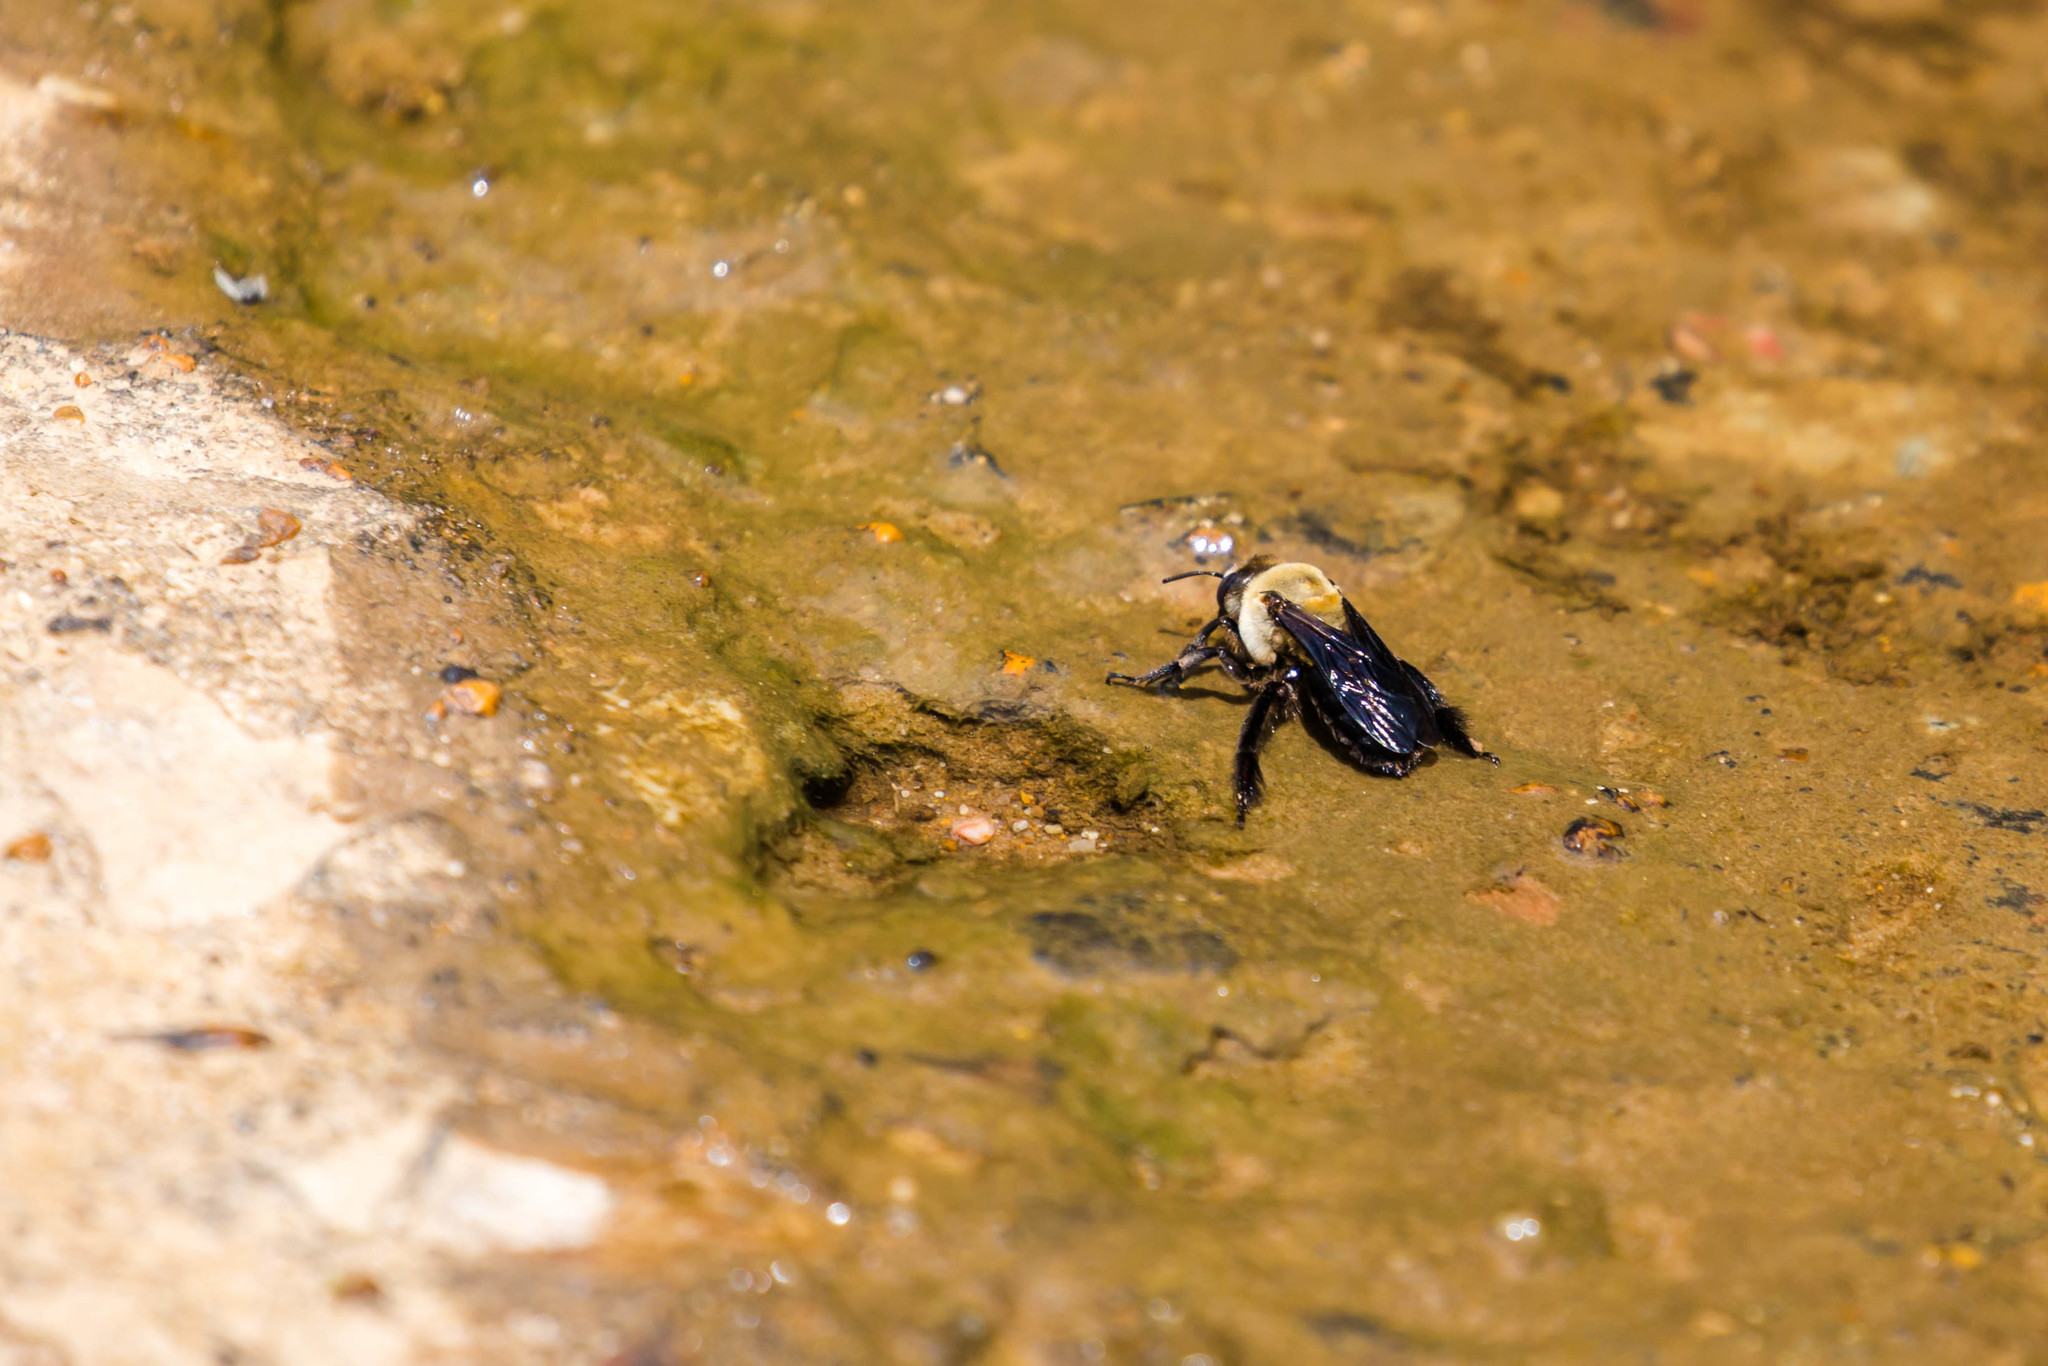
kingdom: Animalia
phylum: Arthropoda
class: Insecta
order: Hymenoptera
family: Apidae
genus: Ptilothrix
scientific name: Ptilothrix bombiformis
